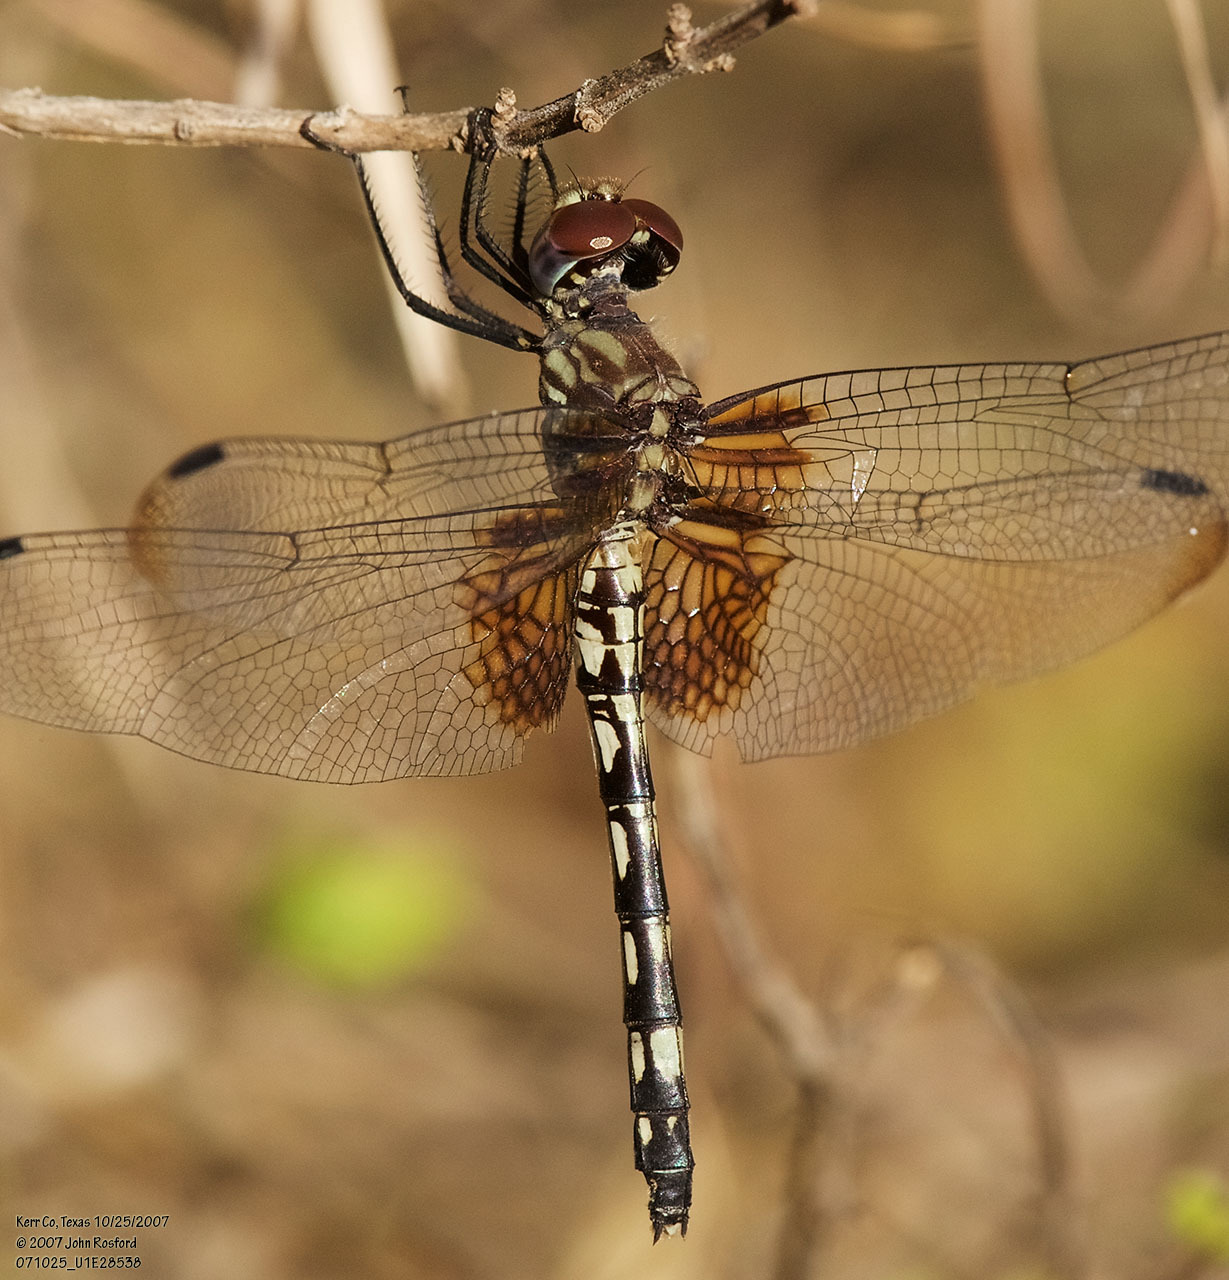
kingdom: Animalia
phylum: Arthropoda
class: Insecta
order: Odonata
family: Libellulidae
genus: Dythemis
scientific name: Dythemis fugax
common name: Checkered setwing
